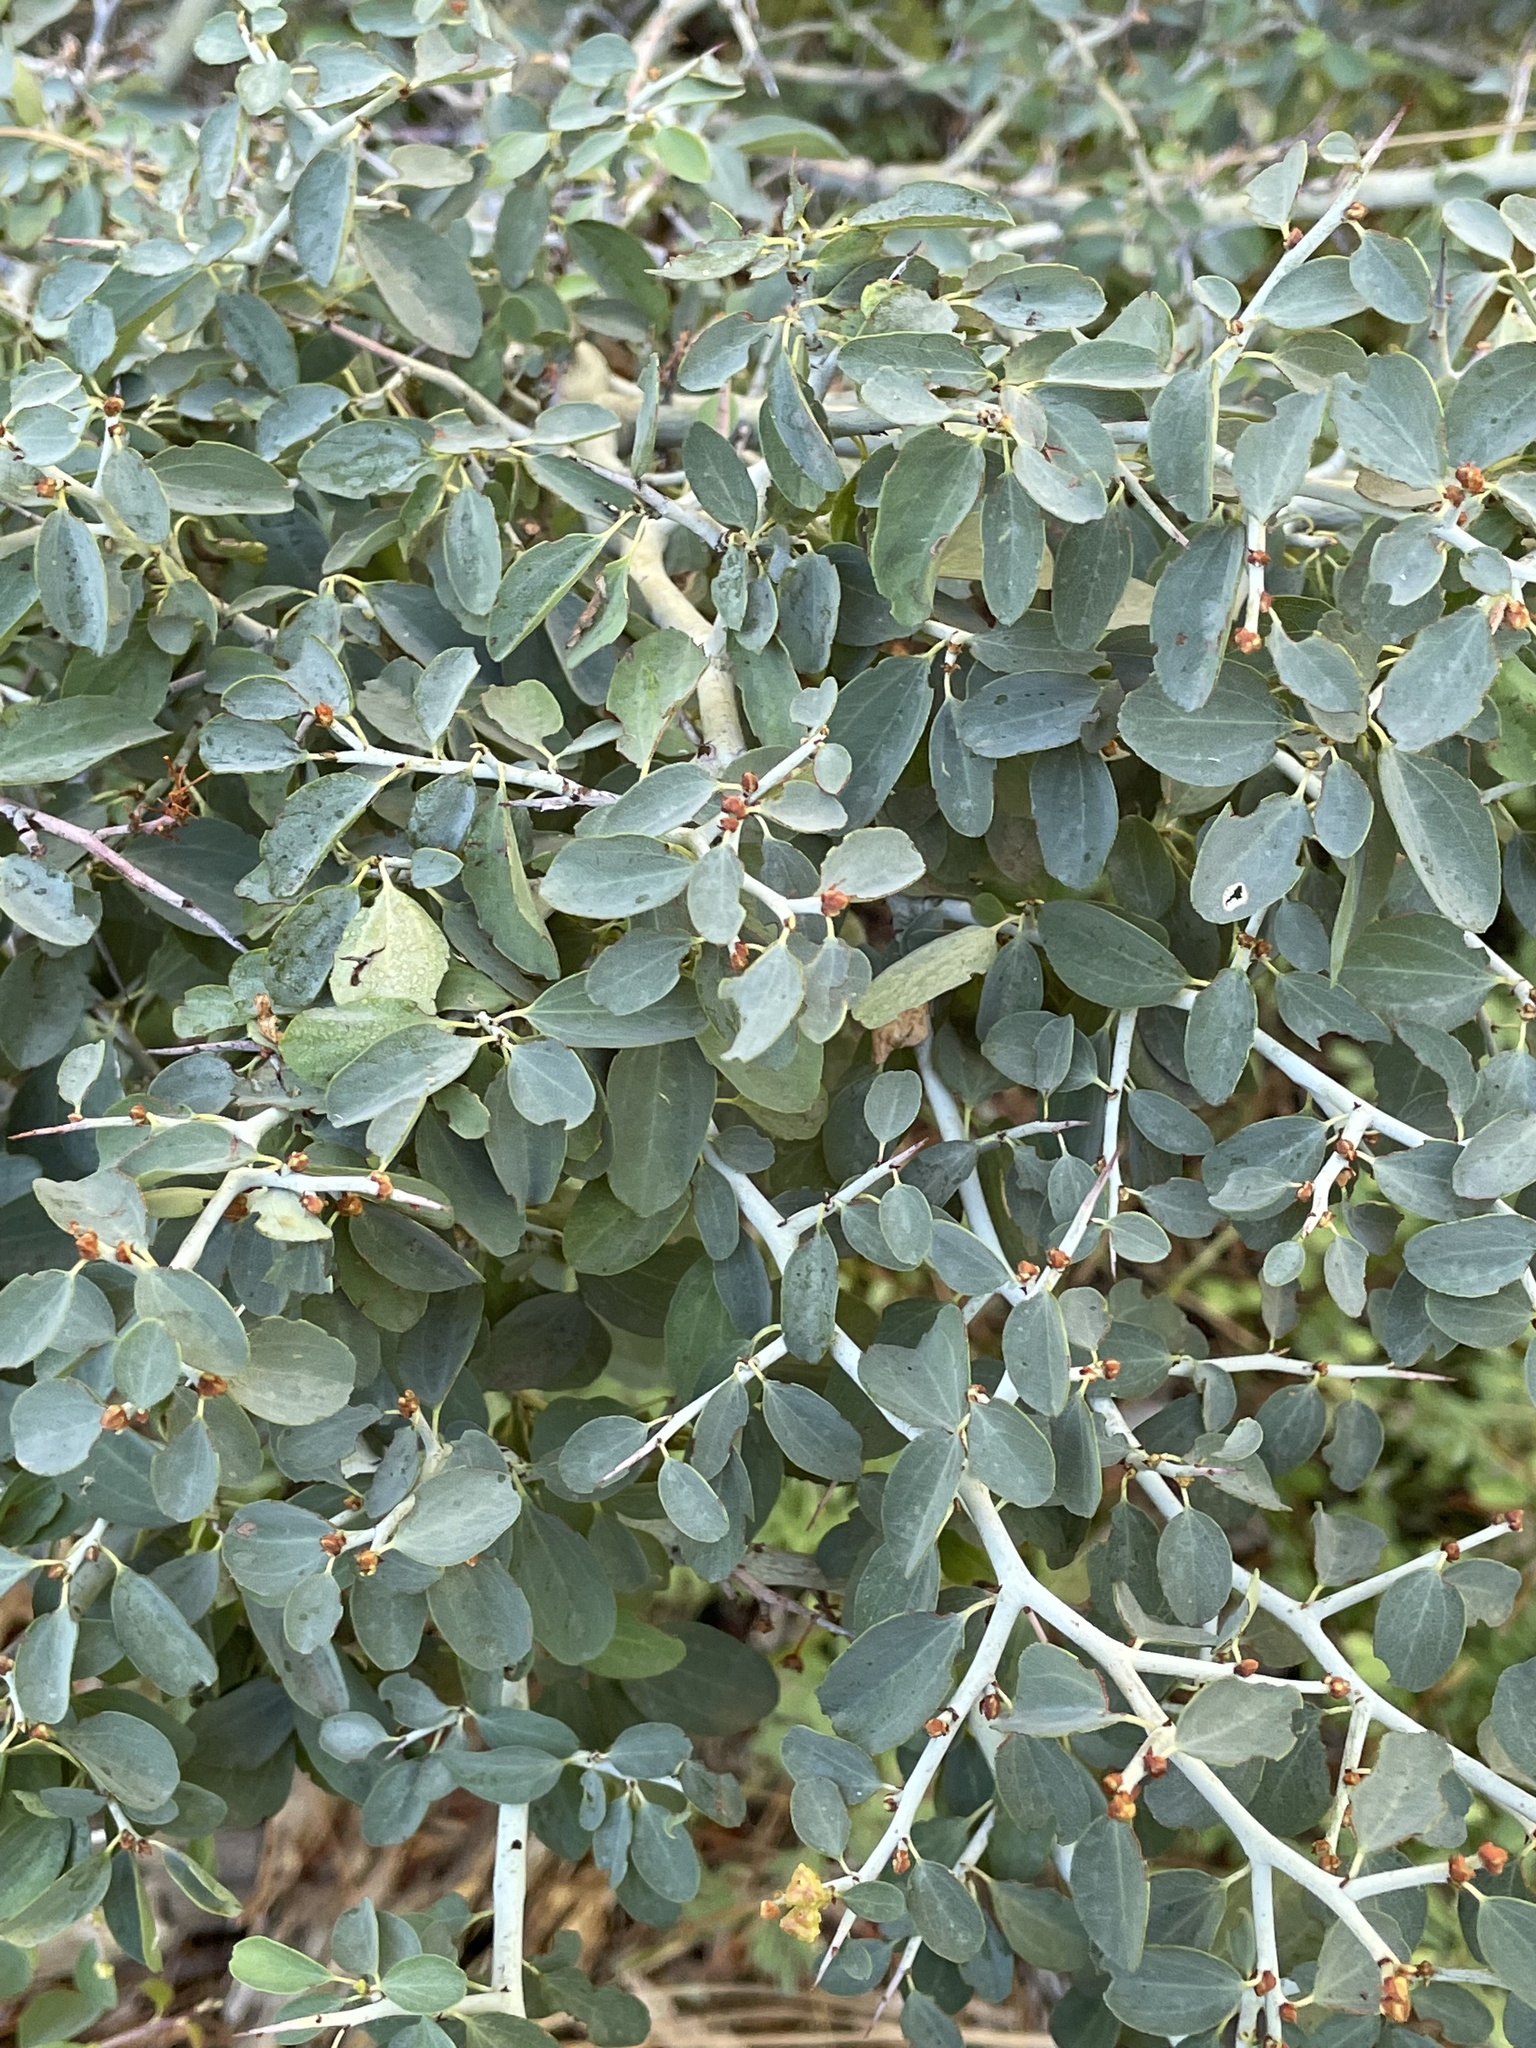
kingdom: Plantae
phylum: Tracheophyta
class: Magnoliopsida
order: Rosales
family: Rhamnaceae
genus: Ceanothus
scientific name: Ceanothus cordulatus
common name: Mountain whitethorn
